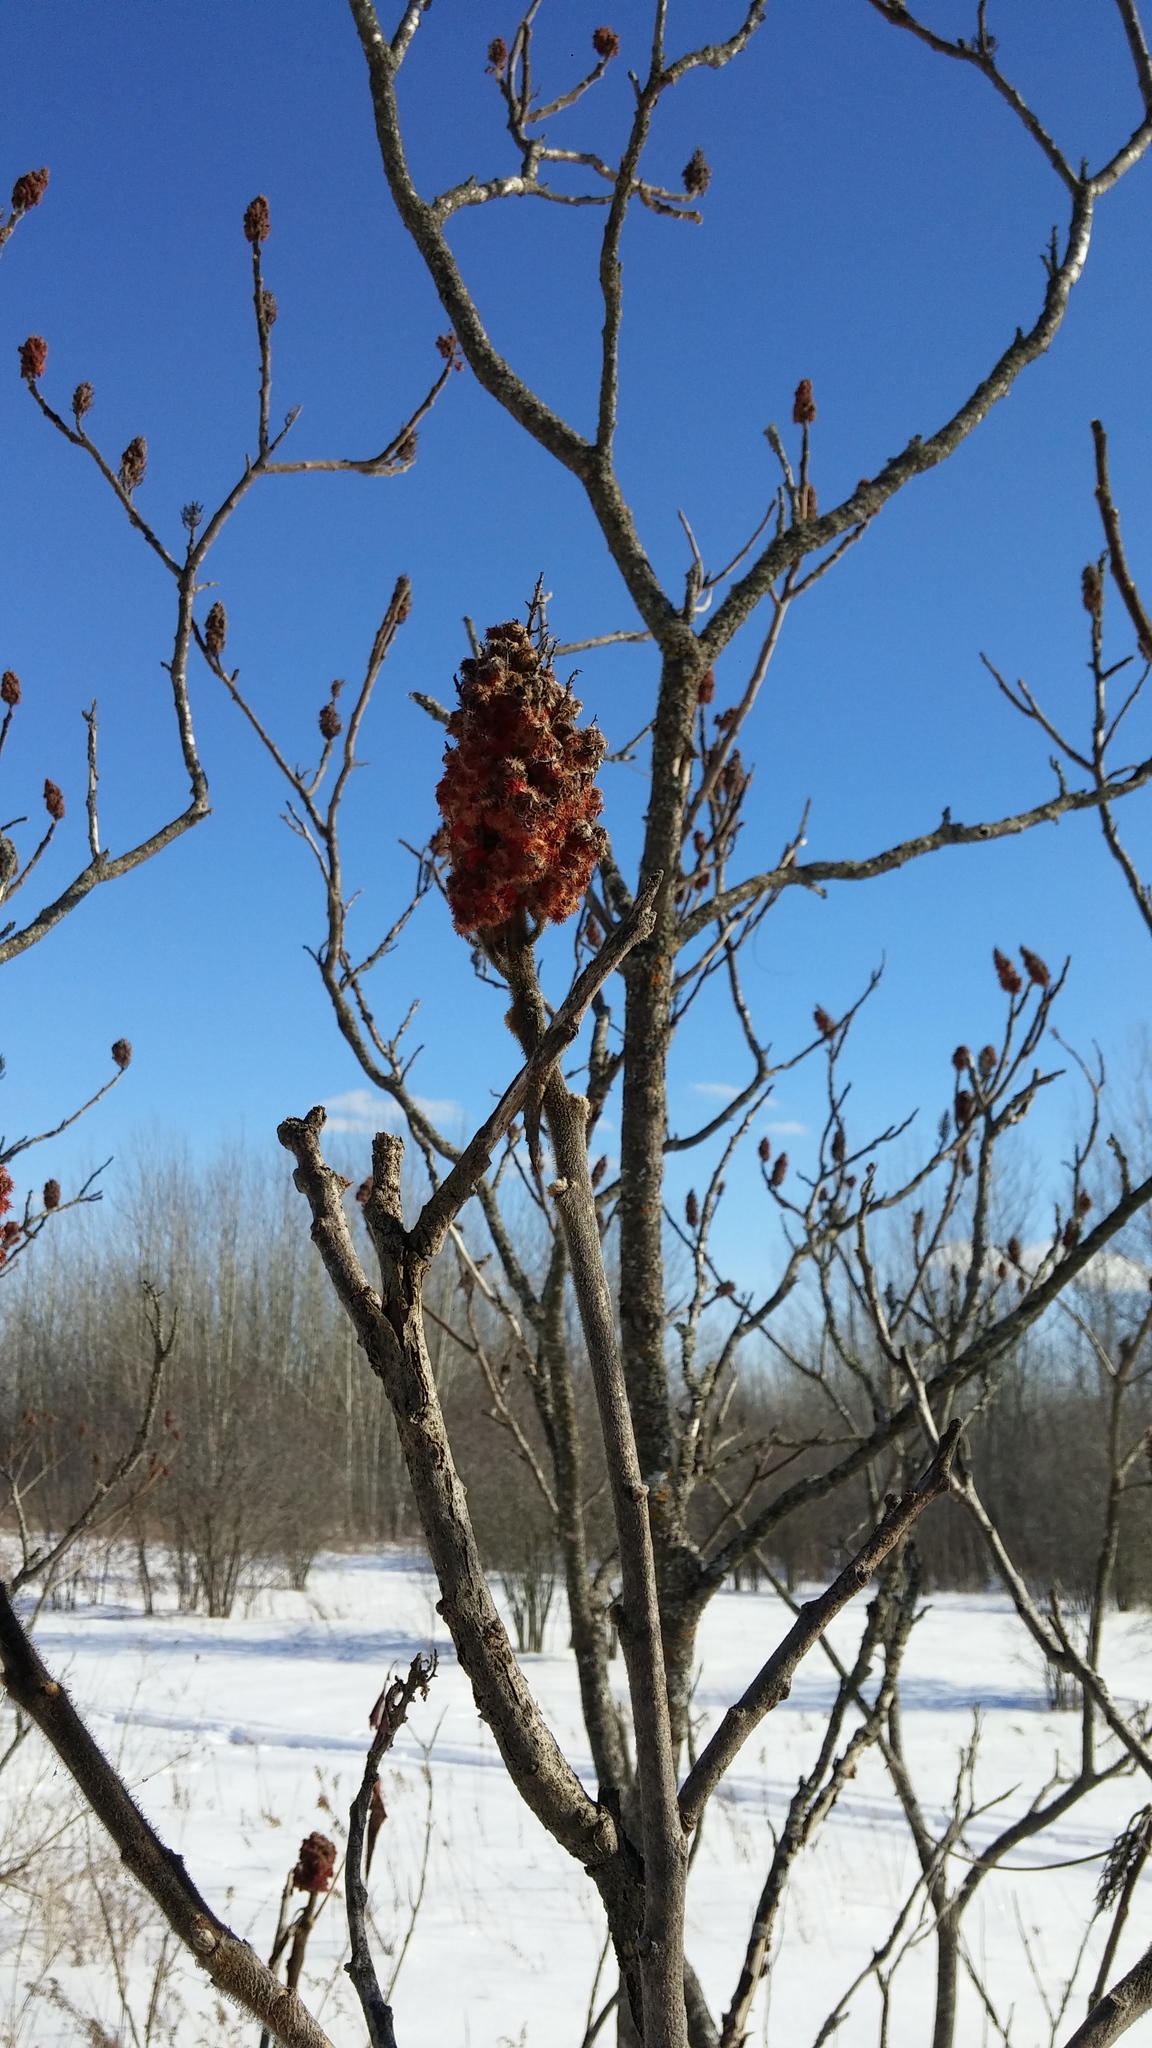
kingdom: Plantae
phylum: Tracheophyta
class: Magnoliopsida
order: Sapindales
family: Anacardiaceae
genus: Rhus
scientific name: Rhus typhina
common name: Staghorn sumac
